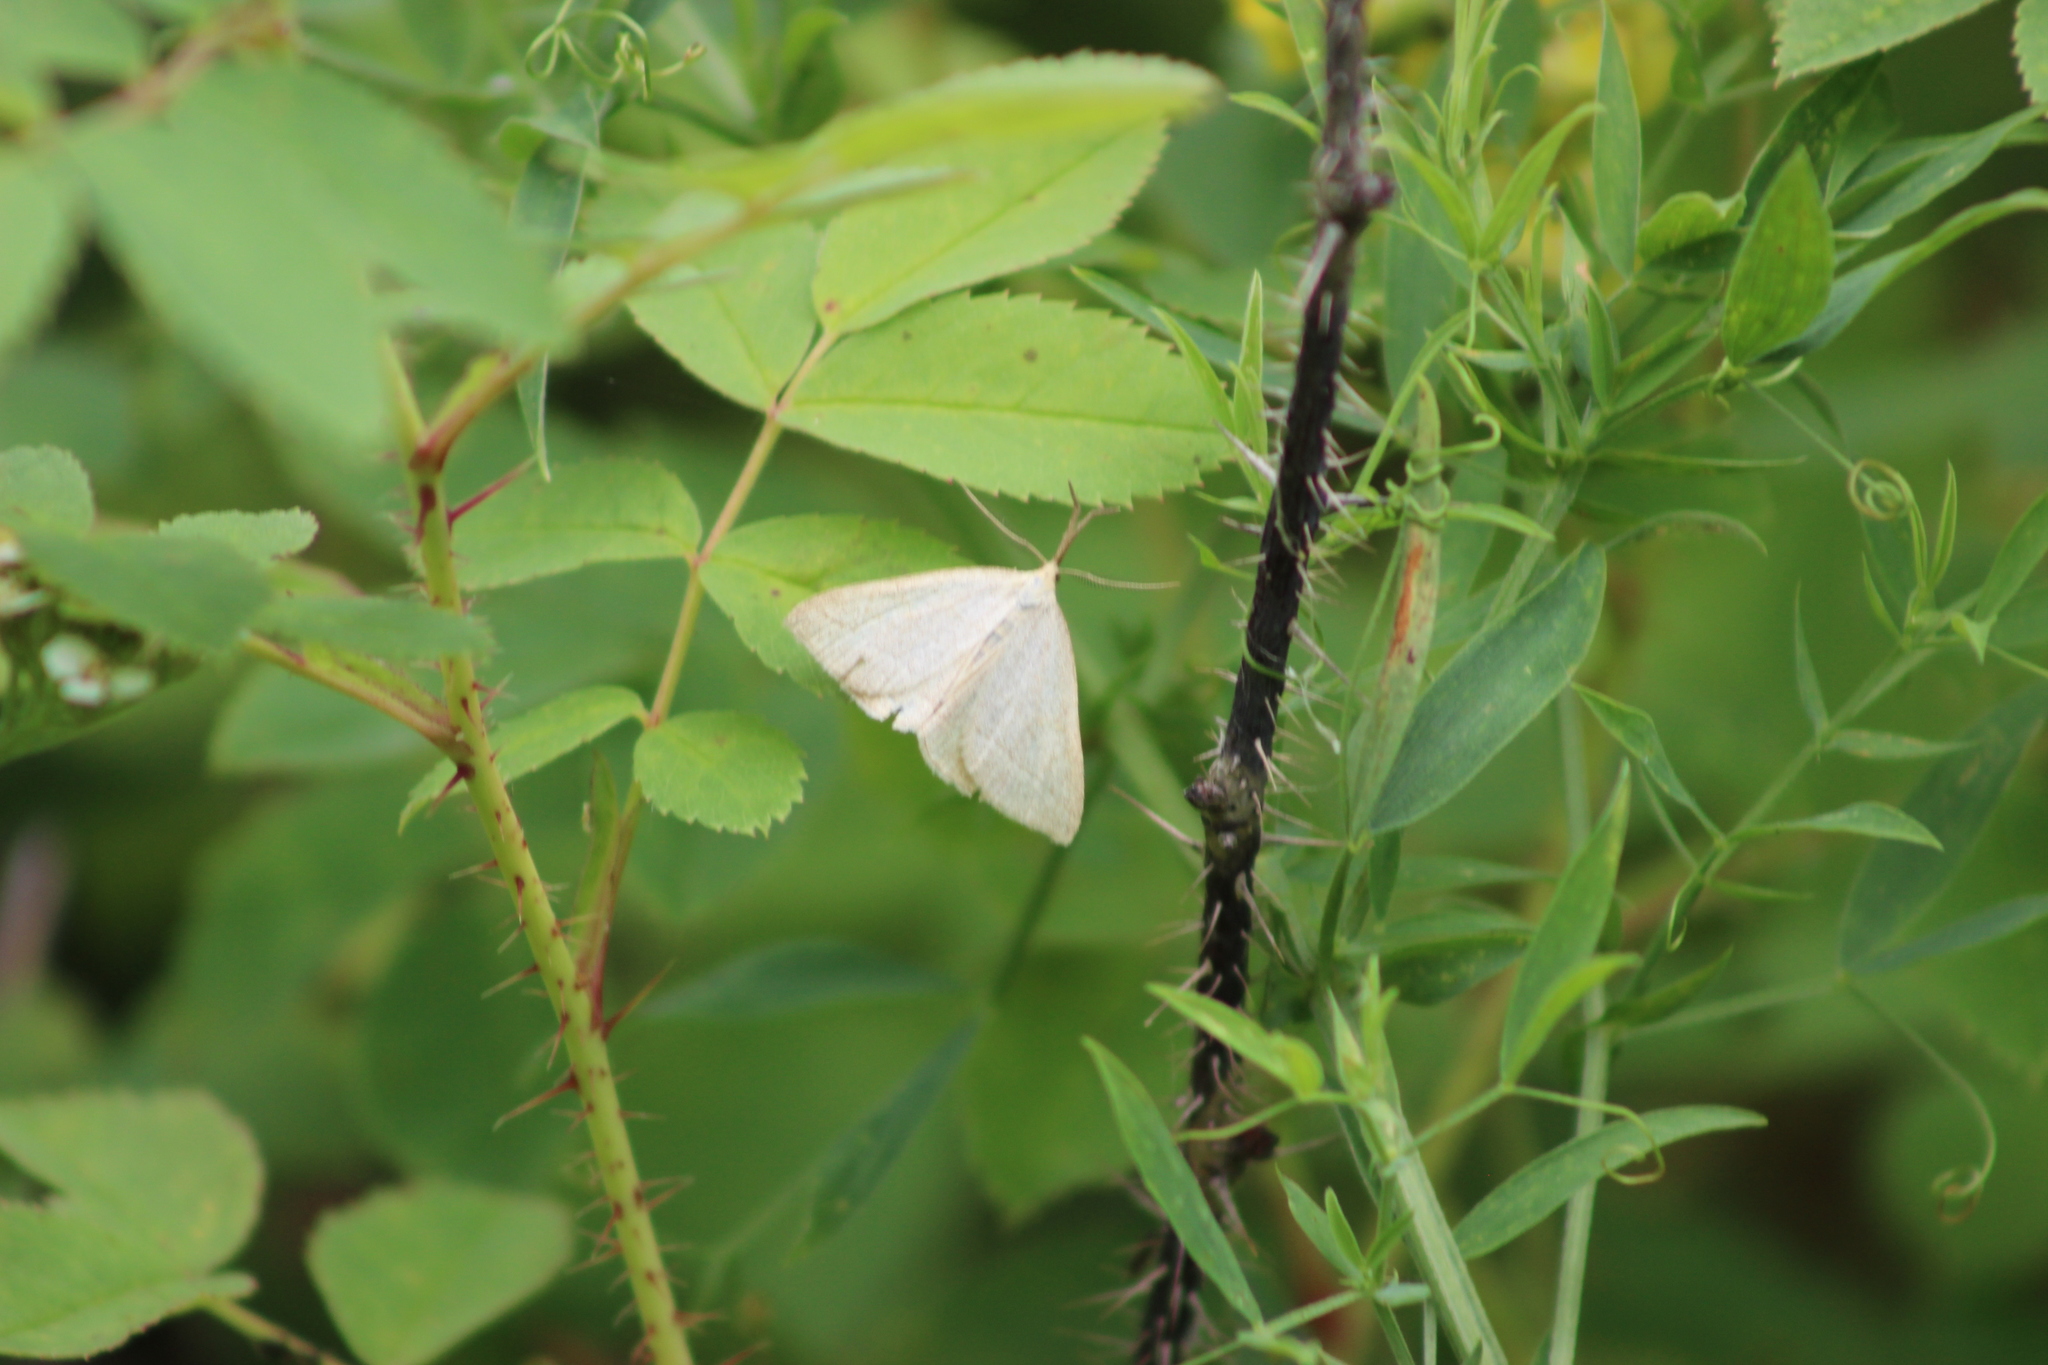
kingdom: Animalia
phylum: Arthropoda
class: Insecta
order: Lepidoptera
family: Erebidae
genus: Polypogon
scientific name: Polypogon tentacularia
